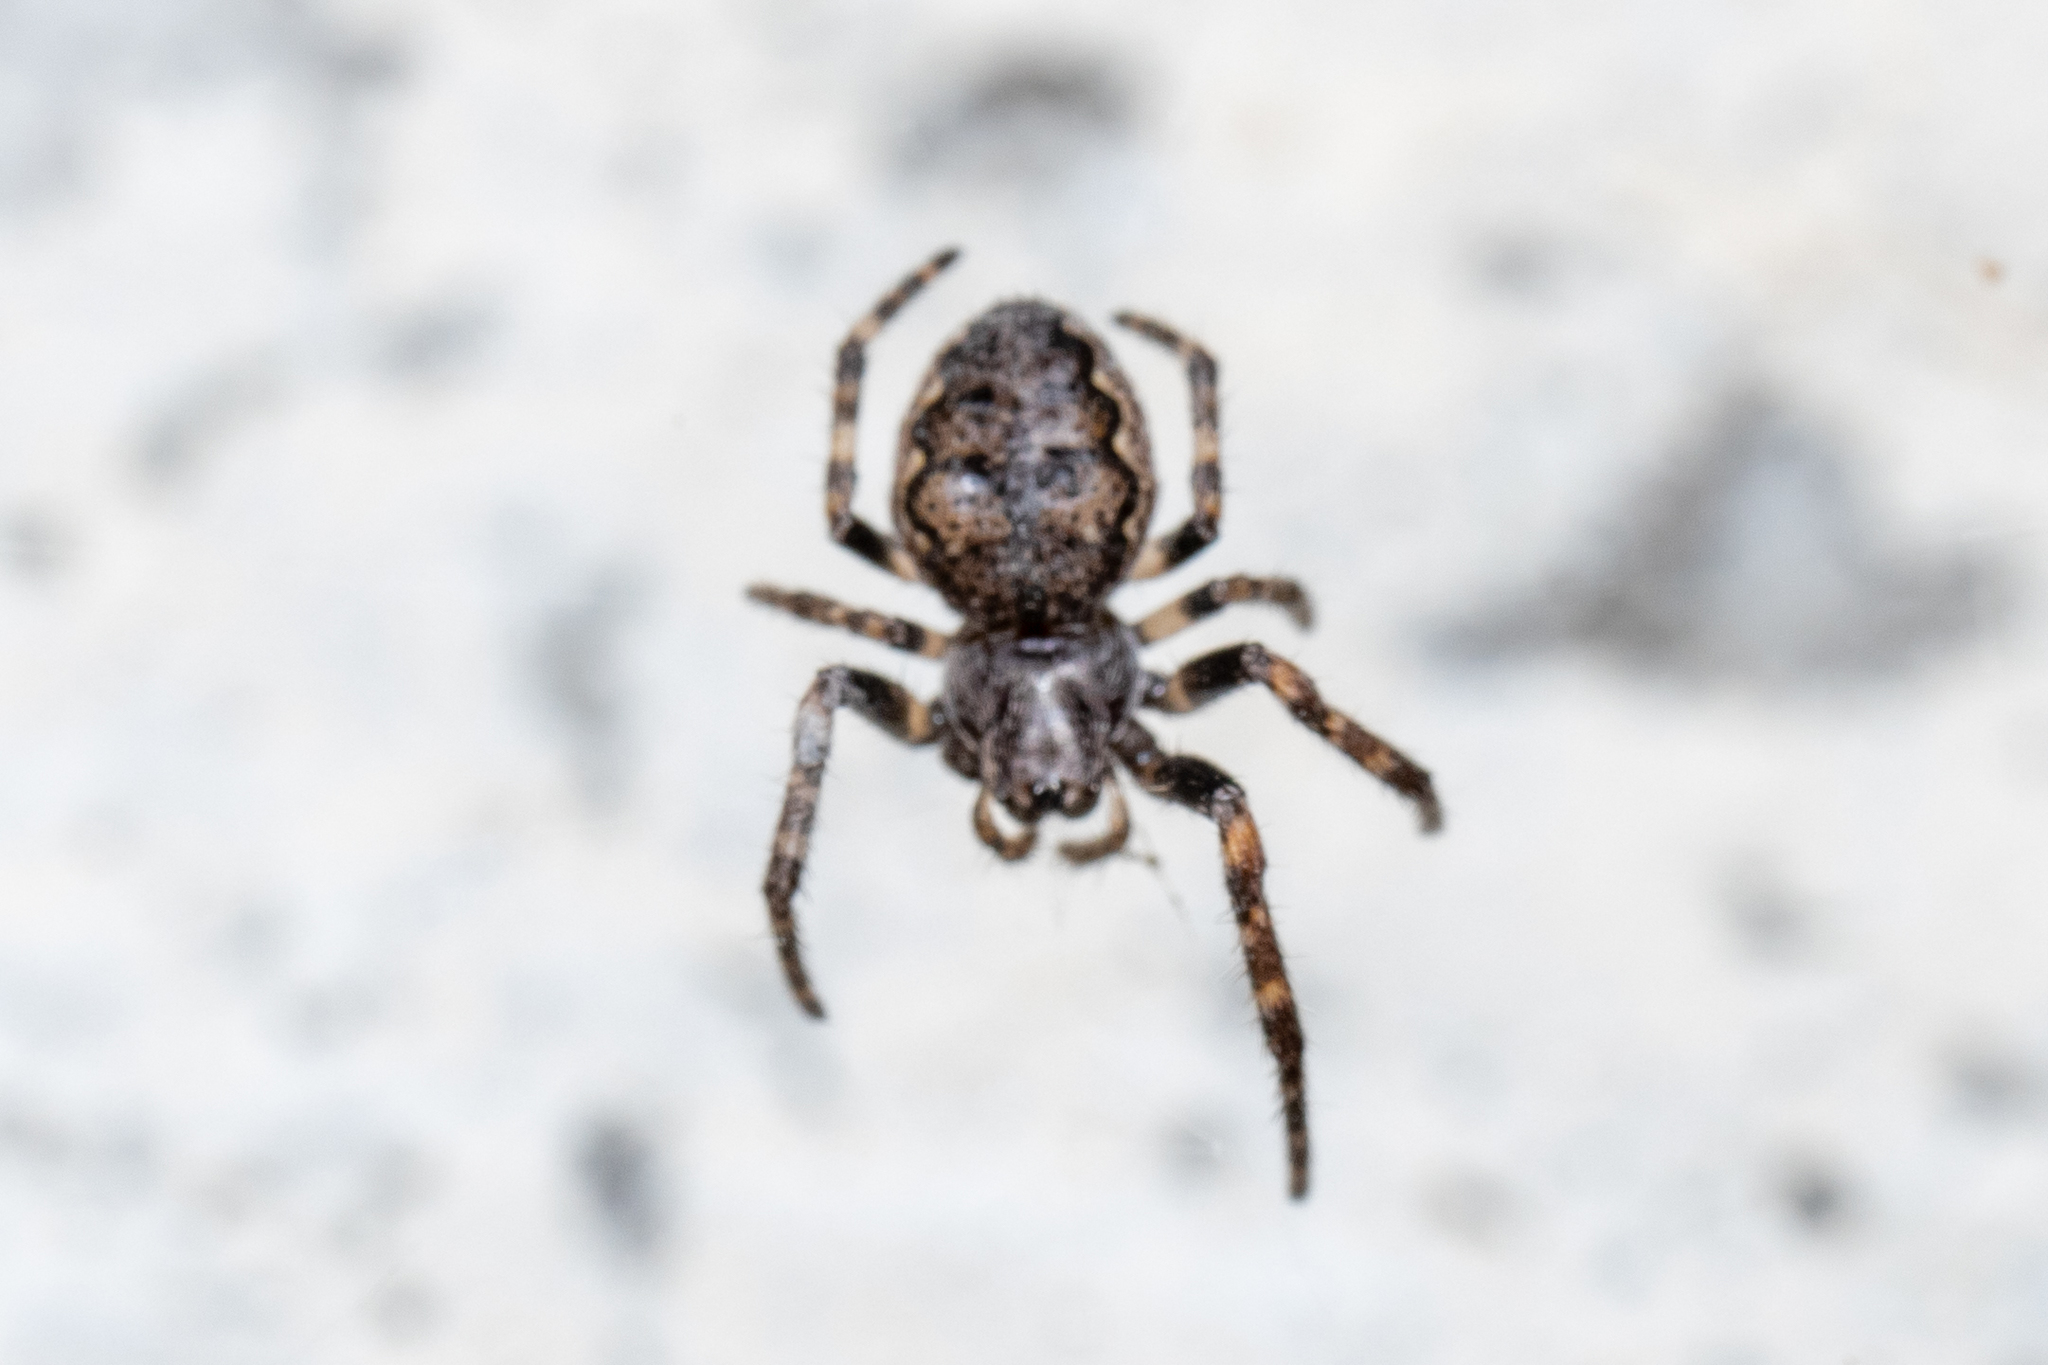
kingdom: Animalia
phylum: Arthropoda
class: Arachnida
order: Araneae
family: Araneidae
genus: Nuctenea
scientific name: Nuctenea umbratica
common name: Toad spider
